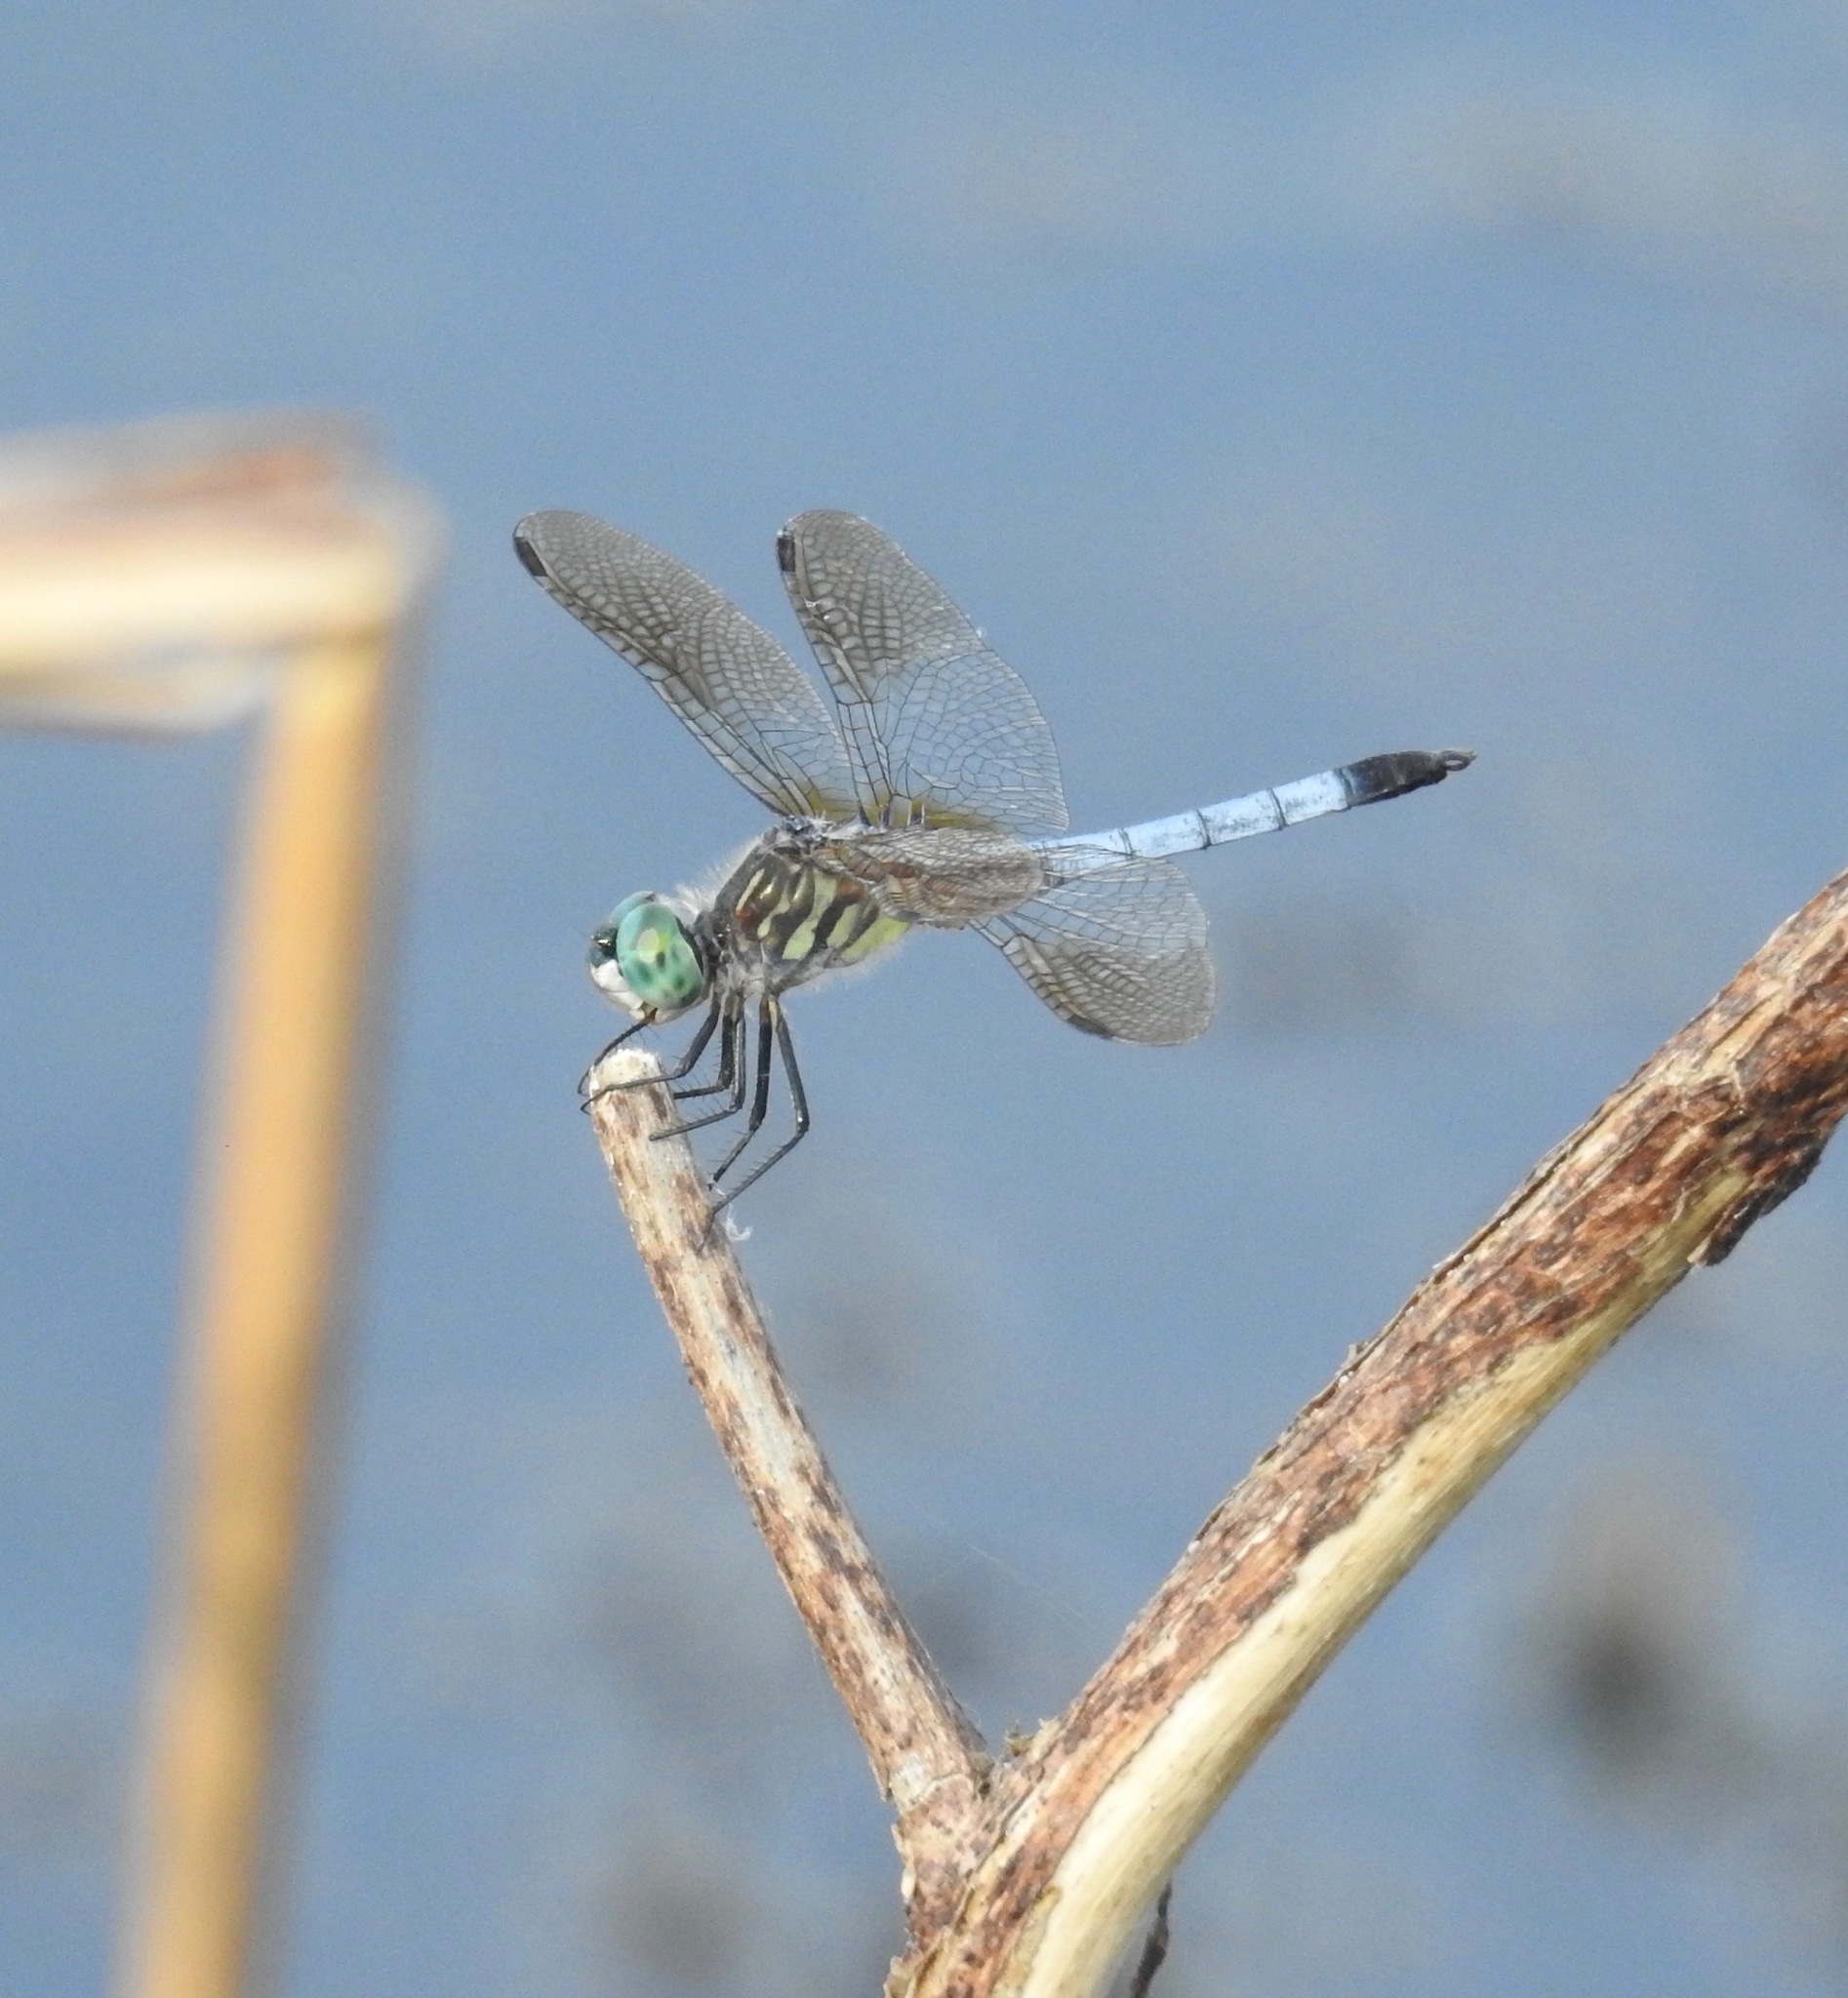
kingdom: Animalia
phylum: Arthropoda
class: Insecta
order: Odonata
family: Libellulidae
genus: Pachydiplax
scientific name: Pachydiplax longipennis
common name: Blue dasher
